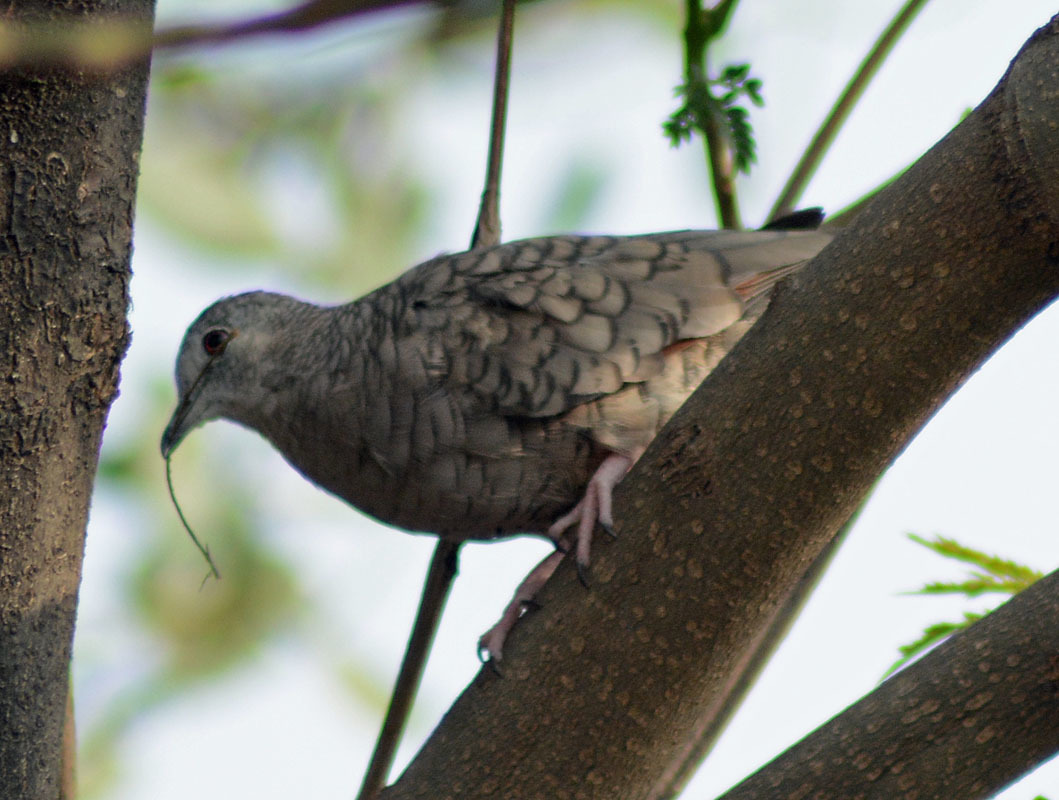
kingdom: Animalia
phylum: Chordata
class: Aves
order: Columbiformes
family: Columbidae
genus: Columbina
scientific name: Columbina inca
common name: Inca dove
